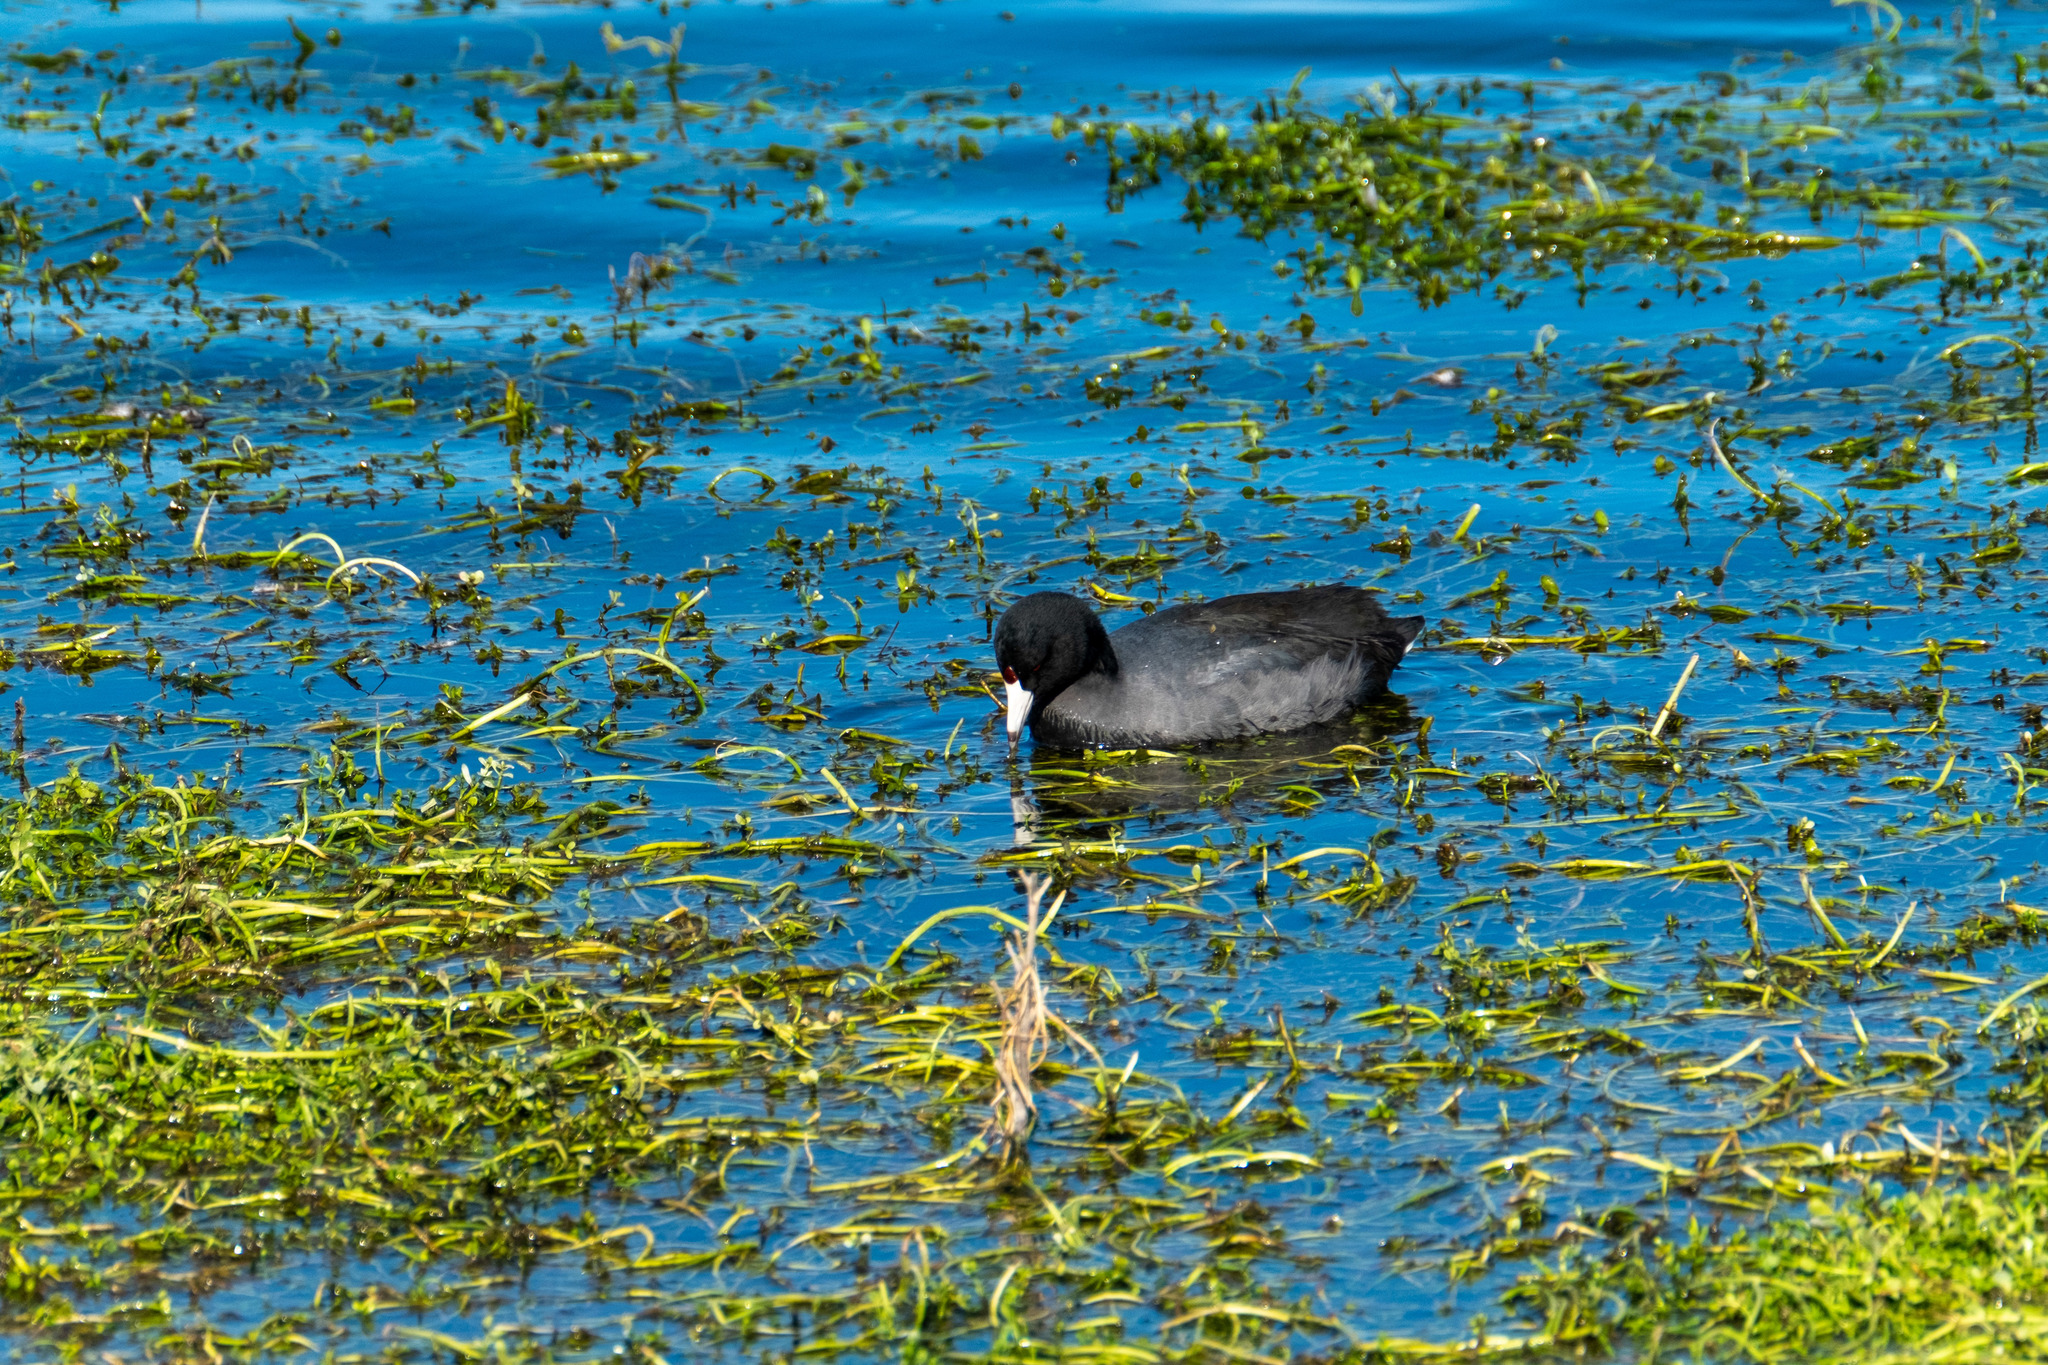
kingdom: Animalia
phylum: Chordata
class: Aves
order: Gruiformes
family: Rallidae
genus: Fulica
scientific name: Fulica americana
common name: American coot
